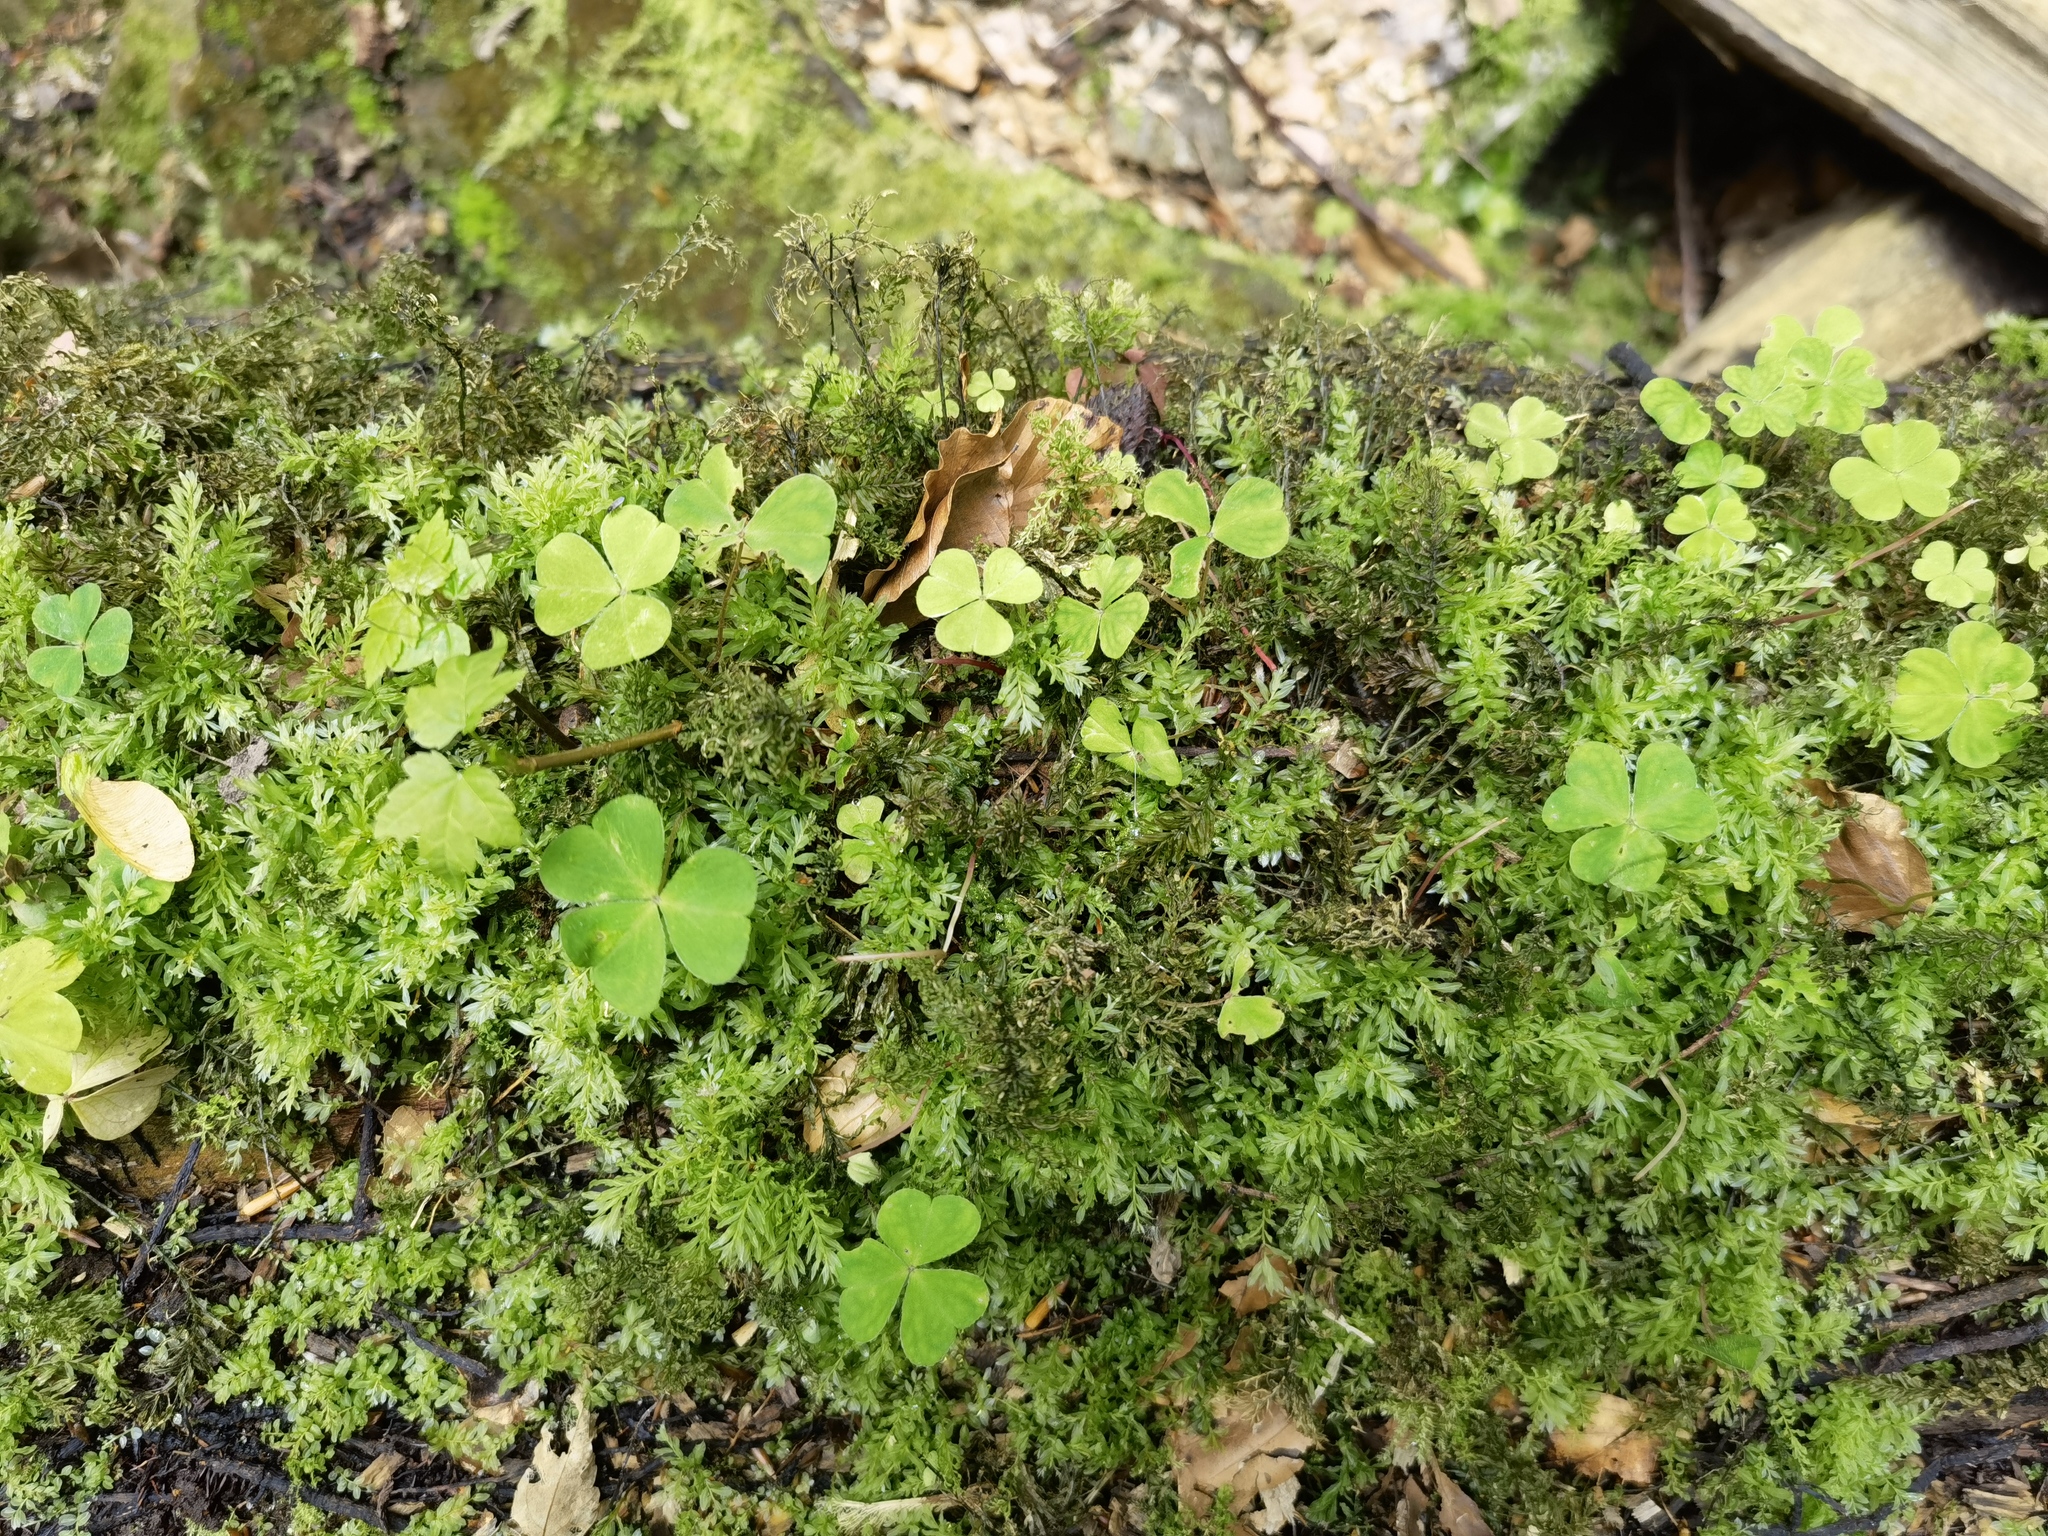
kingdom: Plantae
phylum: Tracheophyta
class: Magnoliopsida
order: Oxalidales
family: Oxalidaceae
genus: Oxalis
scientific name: Oxalis acetosella
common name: Wood-sorrel
